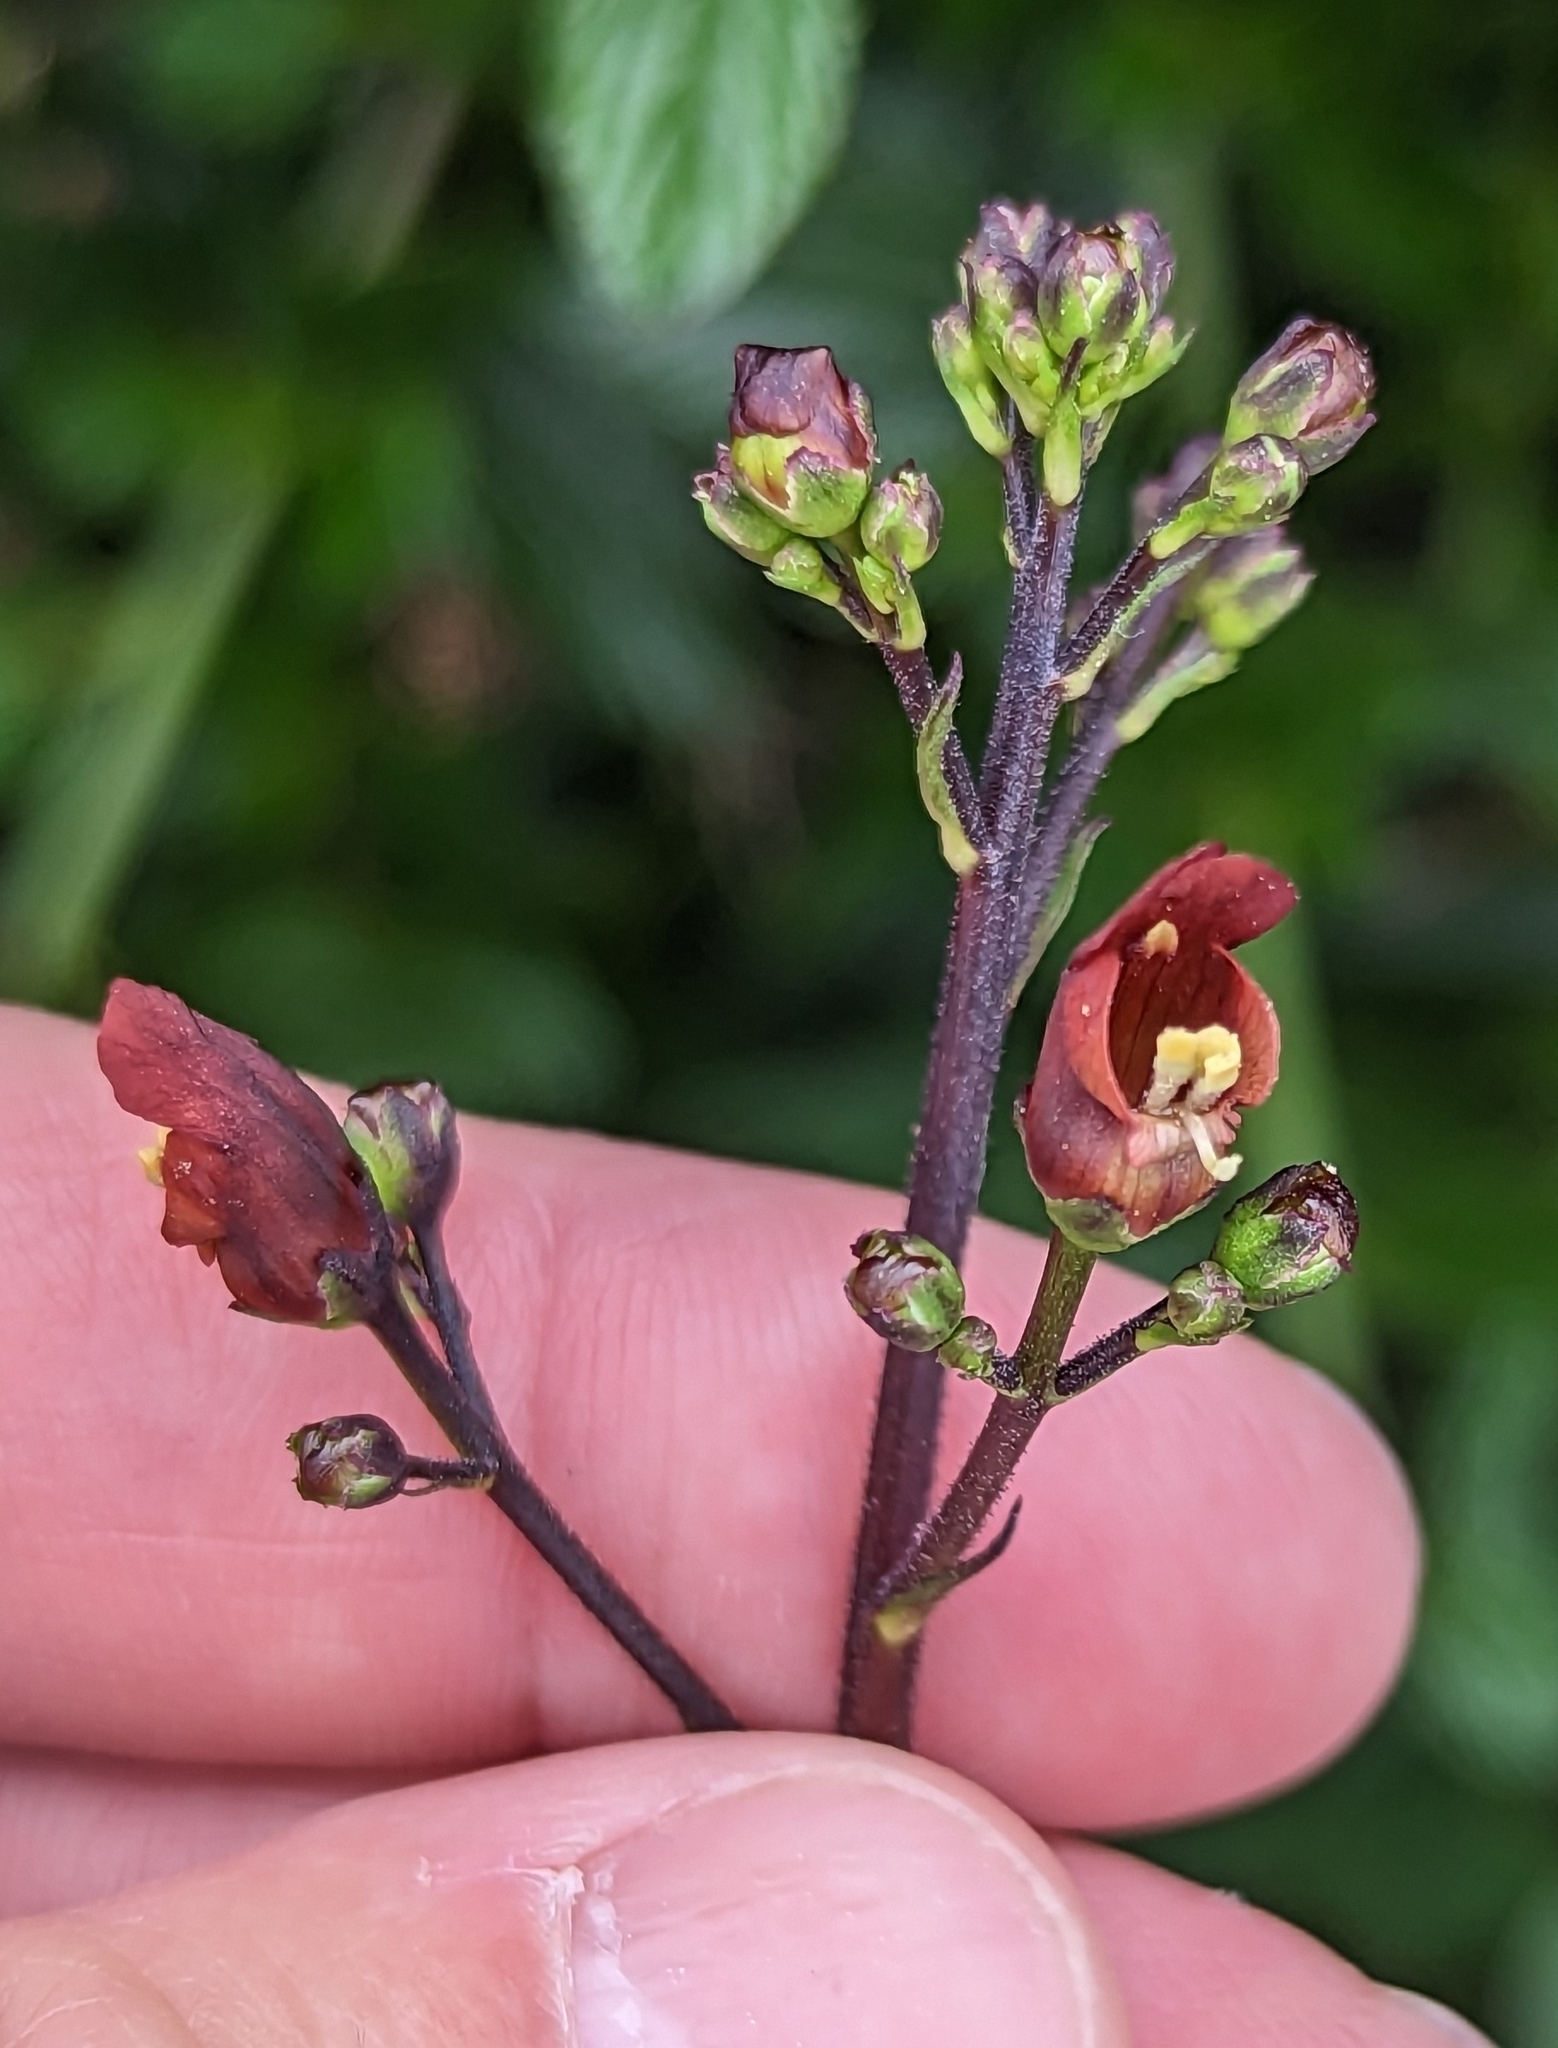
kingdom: Plantae
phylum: Tracheophyta
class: Magnoliopsida
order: Lamiales
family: Scrophulariaceae
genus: Scrophularia
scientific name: Scrophularia californica
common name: California figwort
